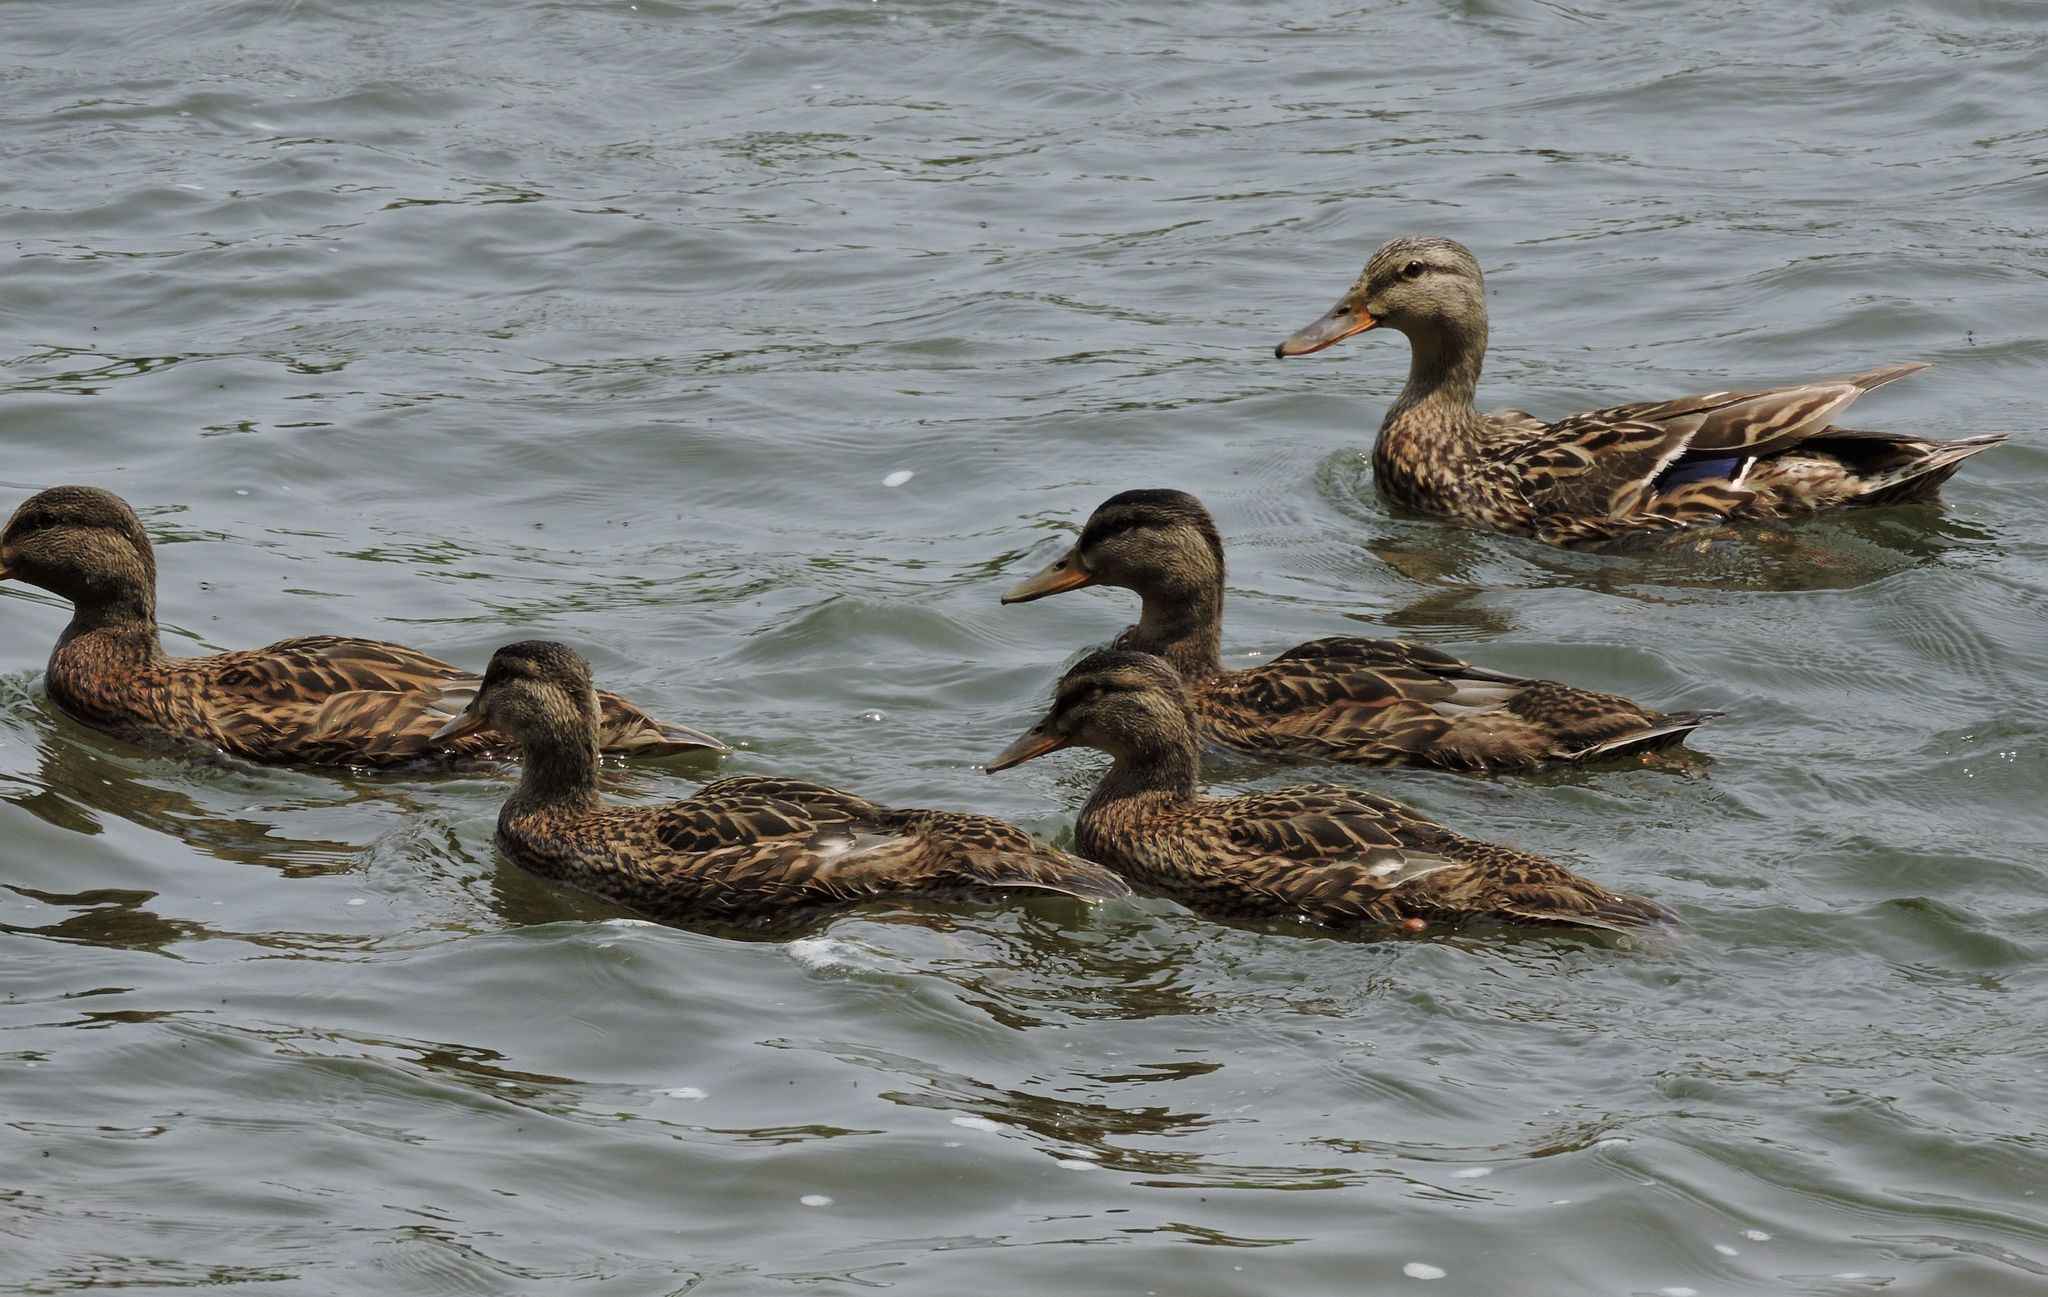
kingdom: Animalia
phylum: Chordata
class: Aves
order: Anseriformes
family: Anatidae
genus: Anas
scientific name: Anas platyrhynchos
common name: Mallard
